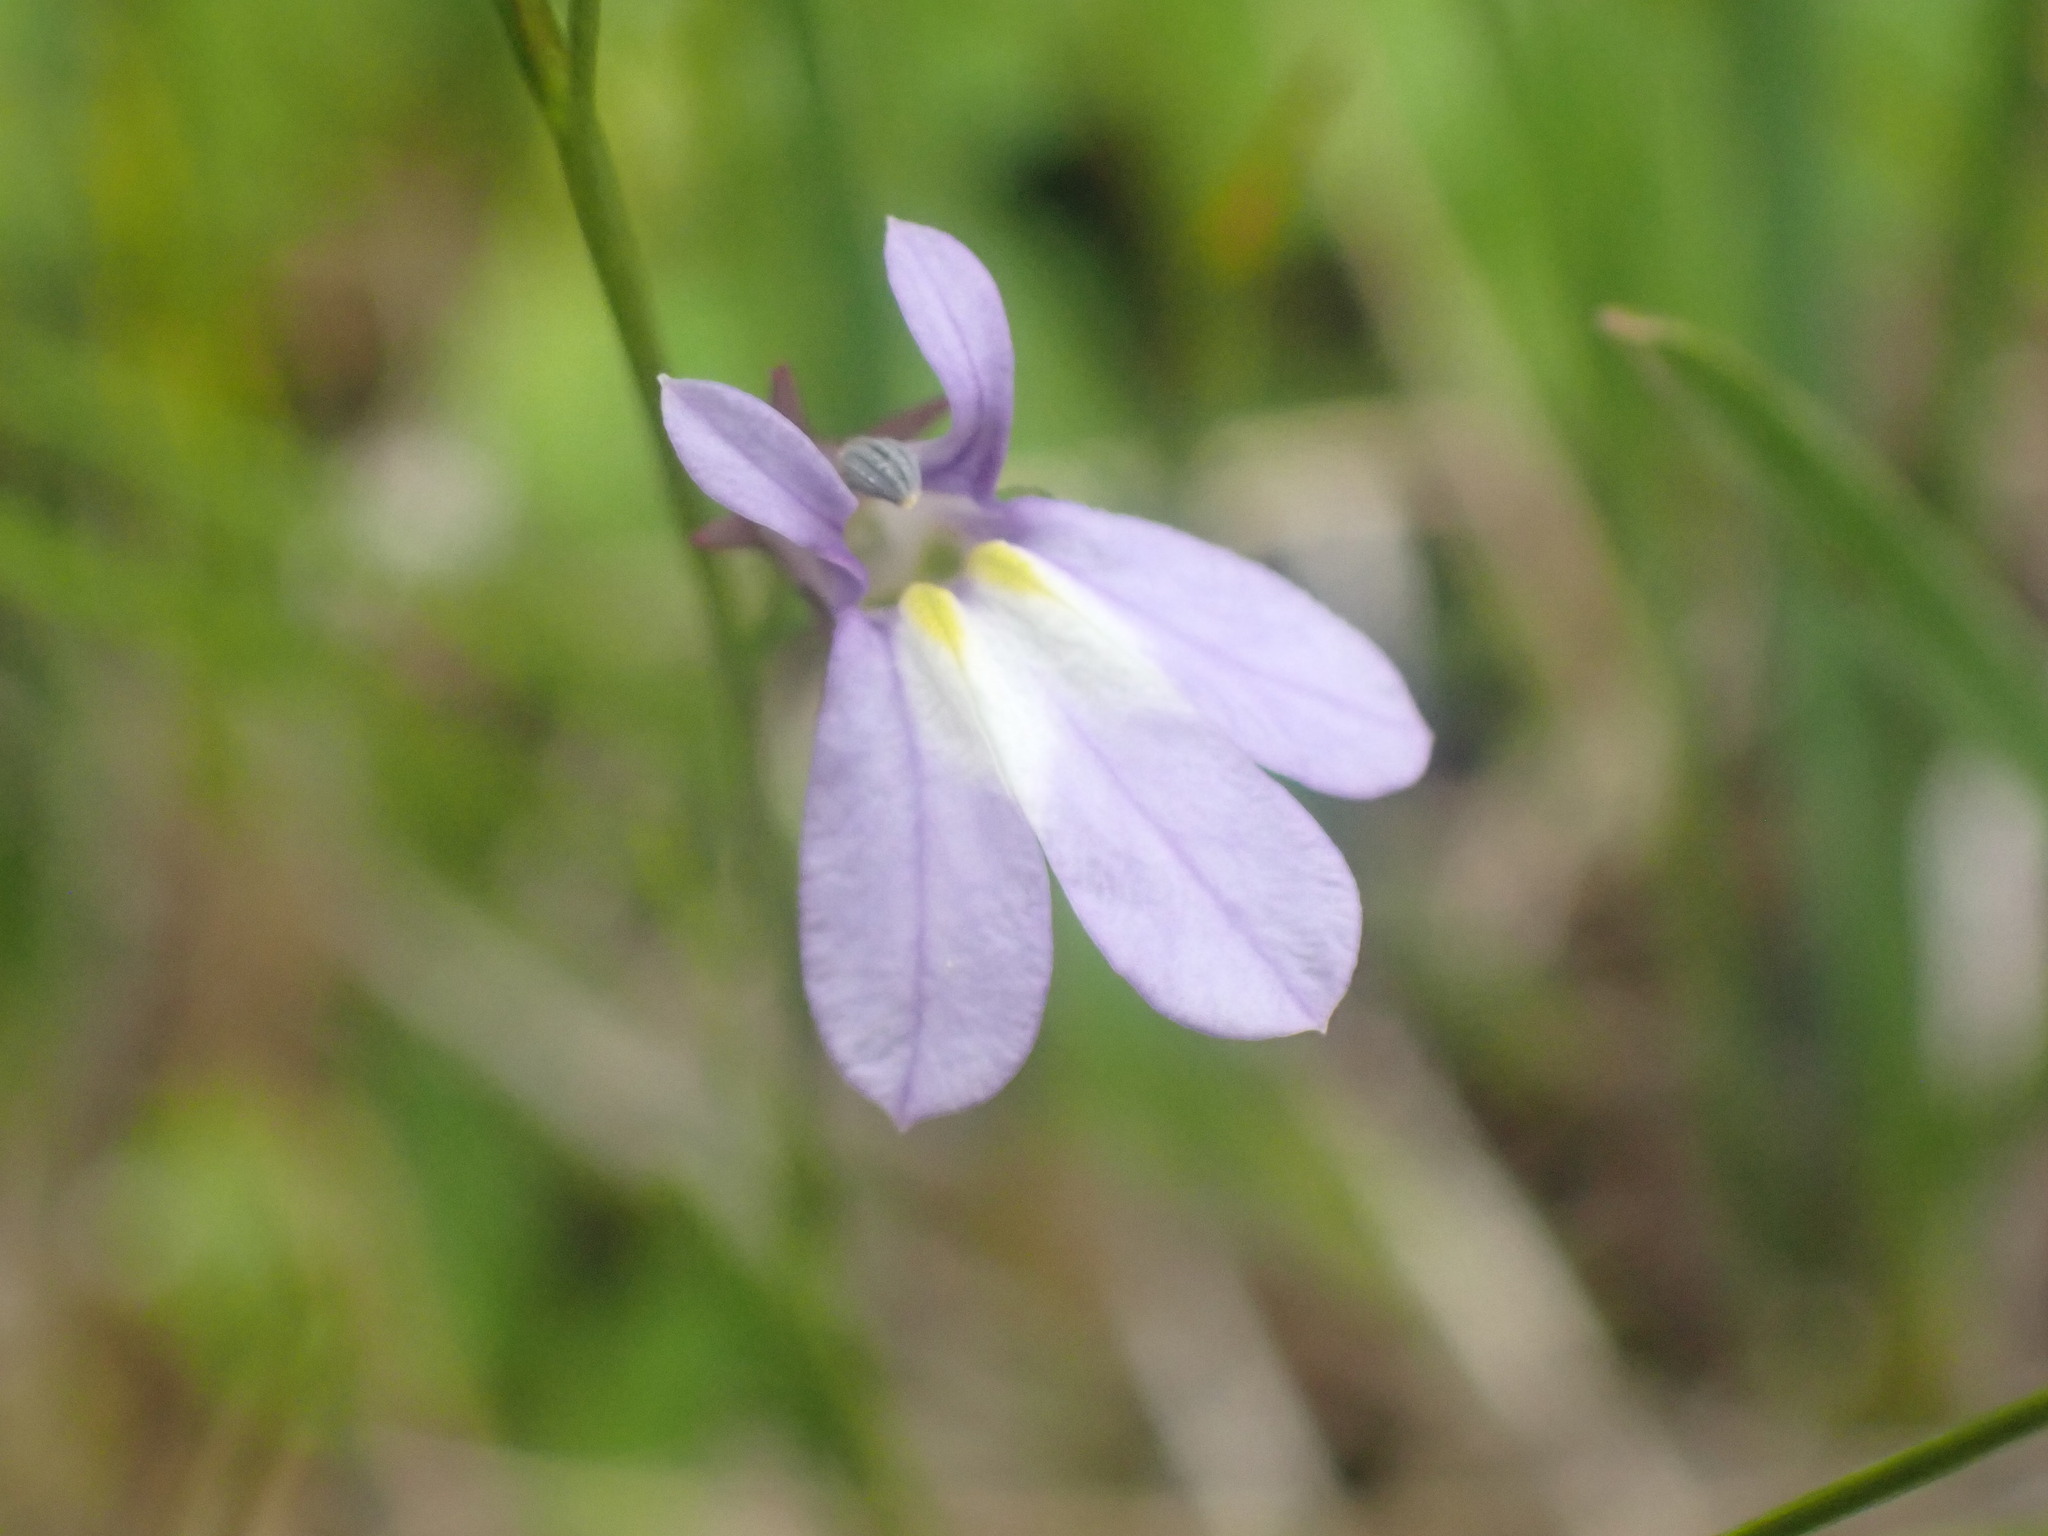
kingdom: Plantae
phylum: Tracheophyta
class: Magnoliopsida
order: Asterales
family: Campanulaceae
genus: Lobelia
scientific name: Lobelia kalmii
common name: Kalm's lobelia
